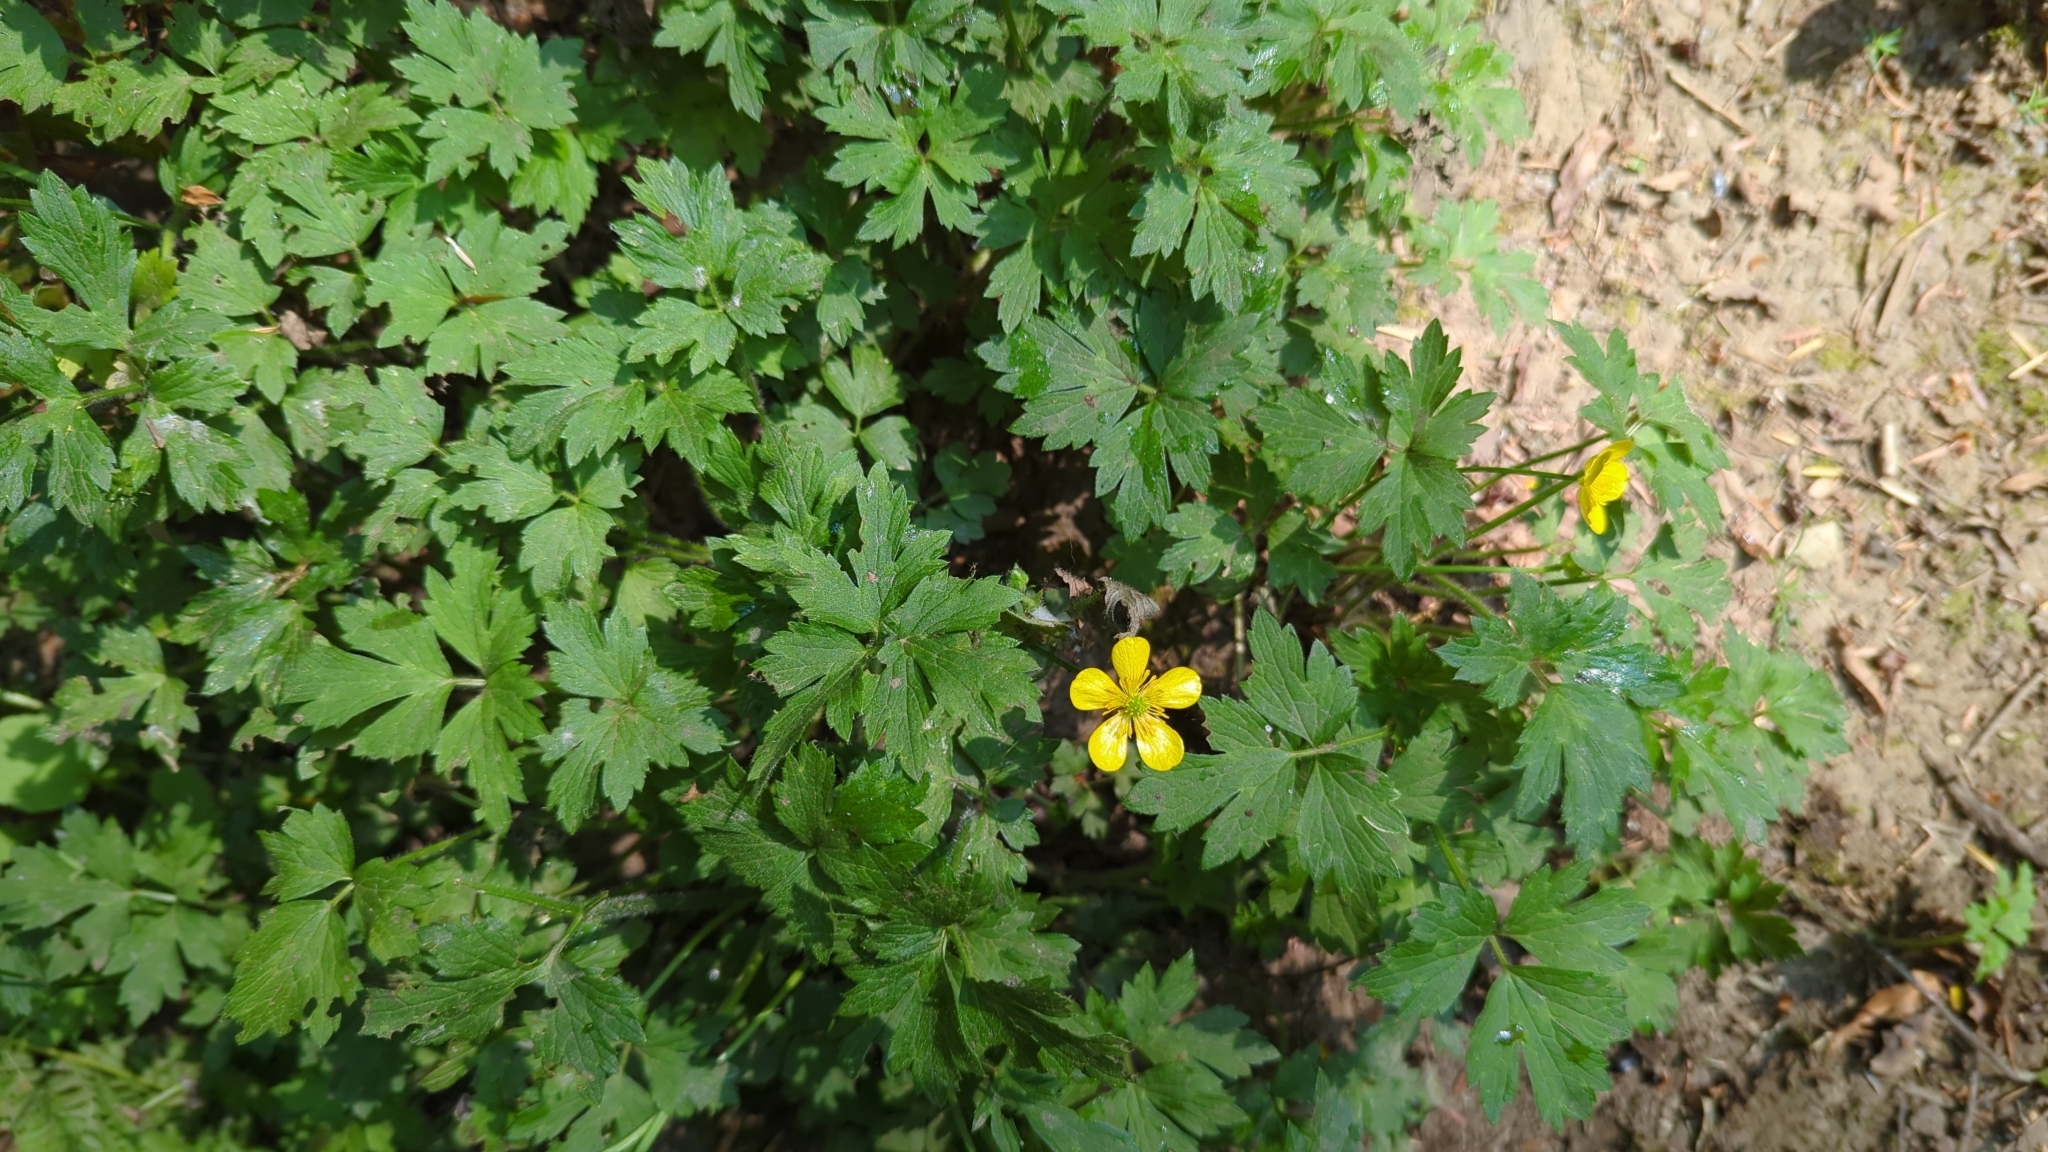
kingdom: Plantae
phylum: Tracheophyta
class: Magnoliopsida
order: Ranunculales
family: Ranunculaceae
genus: Ranunculus
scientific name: Ranunculus repens
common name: Creeping buttercup
